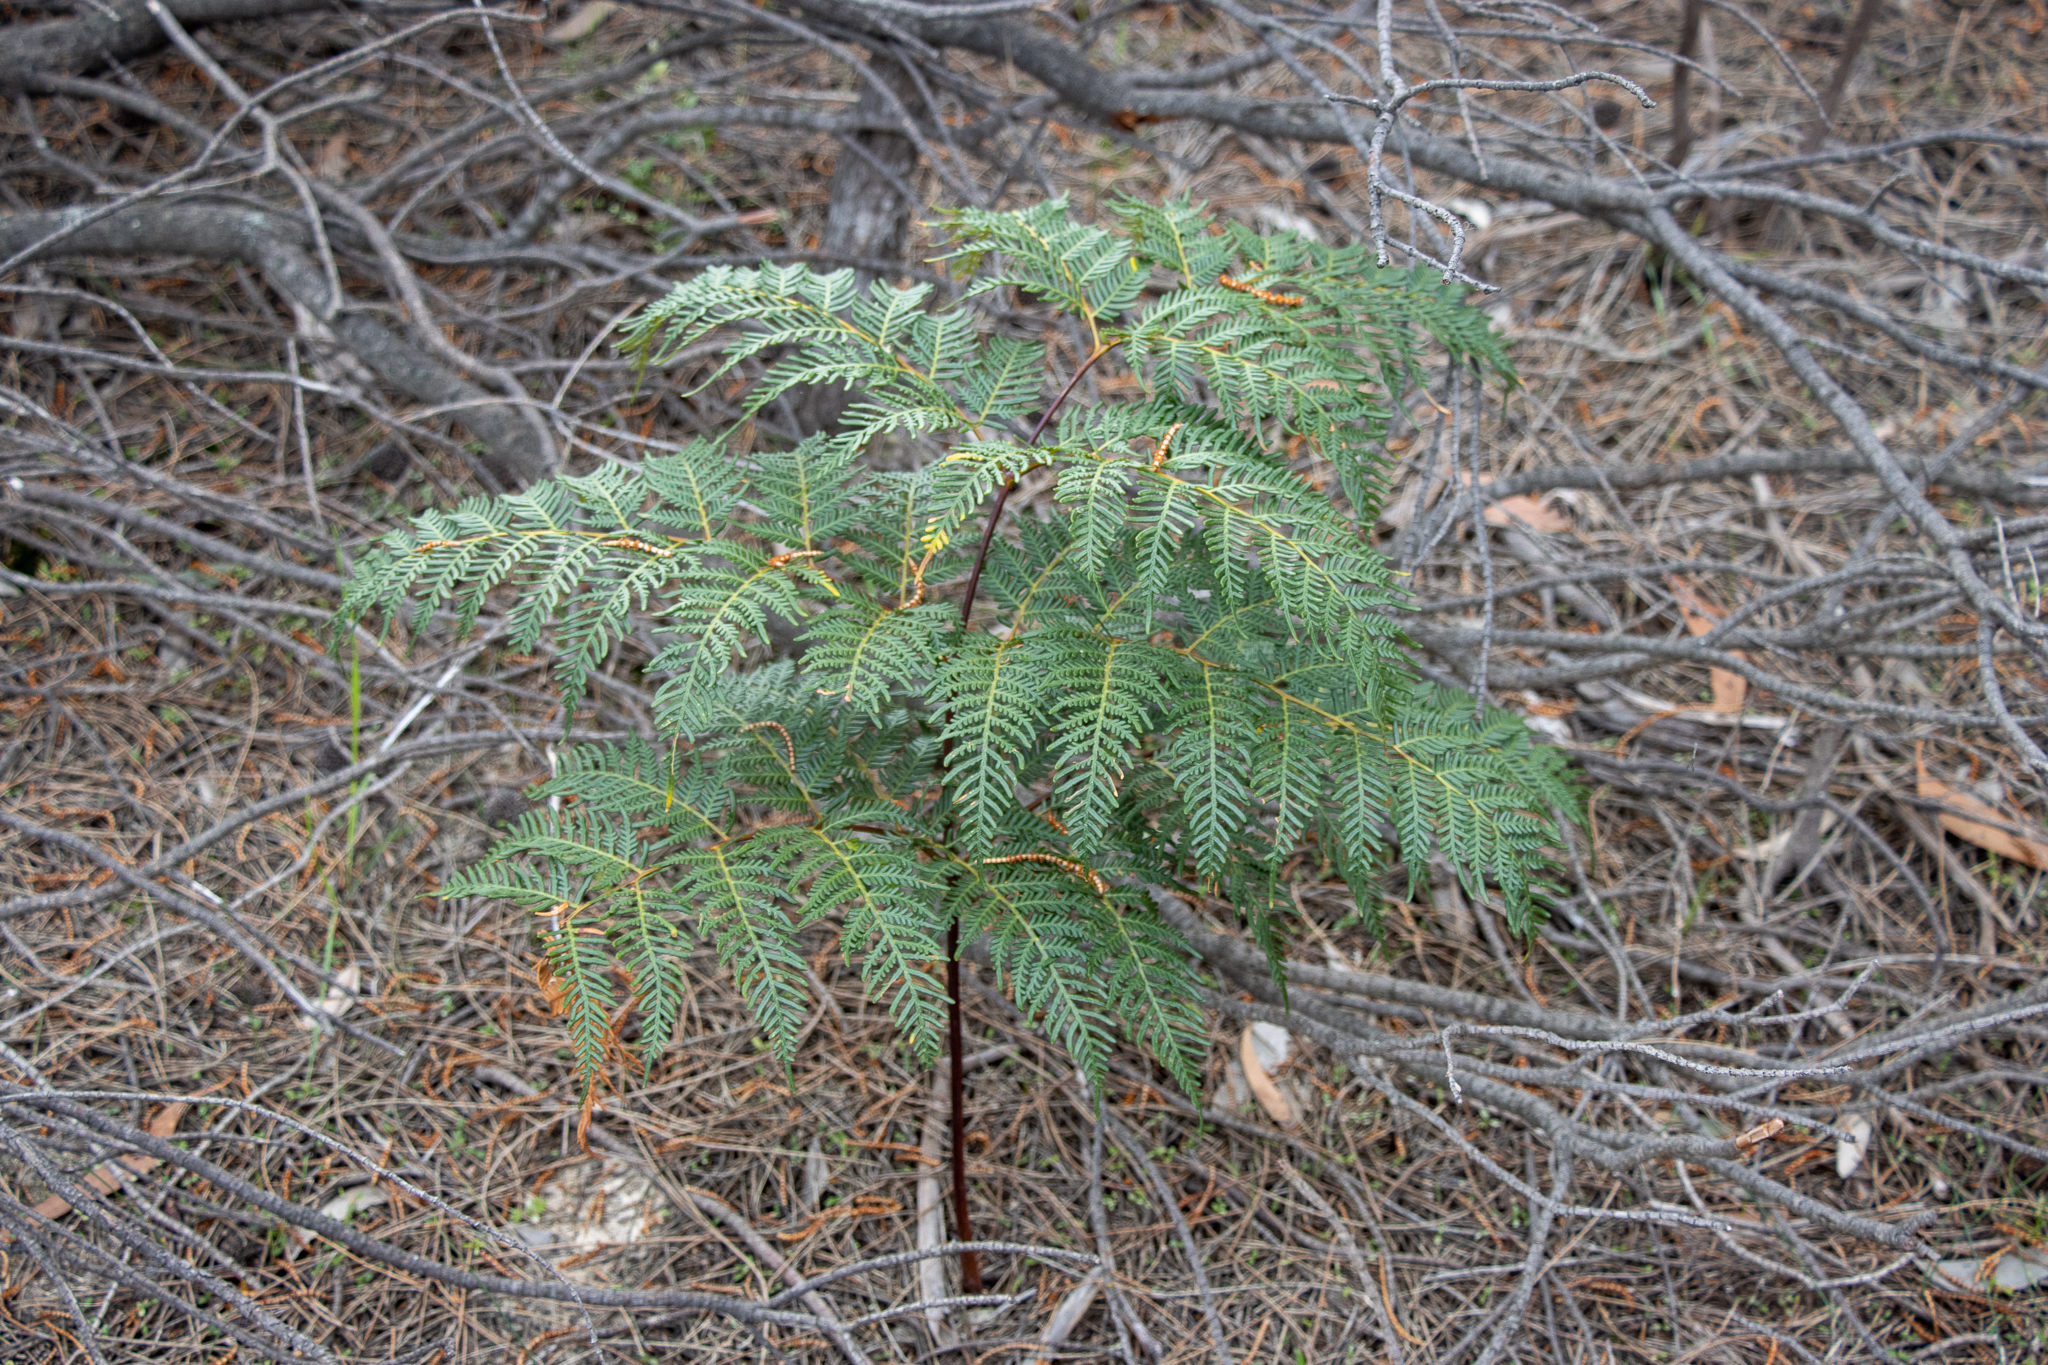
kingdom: Plantae
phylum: Tracheophyta
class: Polypodiopsida
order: Polypodiales
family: Dennstaedtiaceae
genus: Pteridium
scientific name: Pteridium esculentum
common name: Bracken fern
